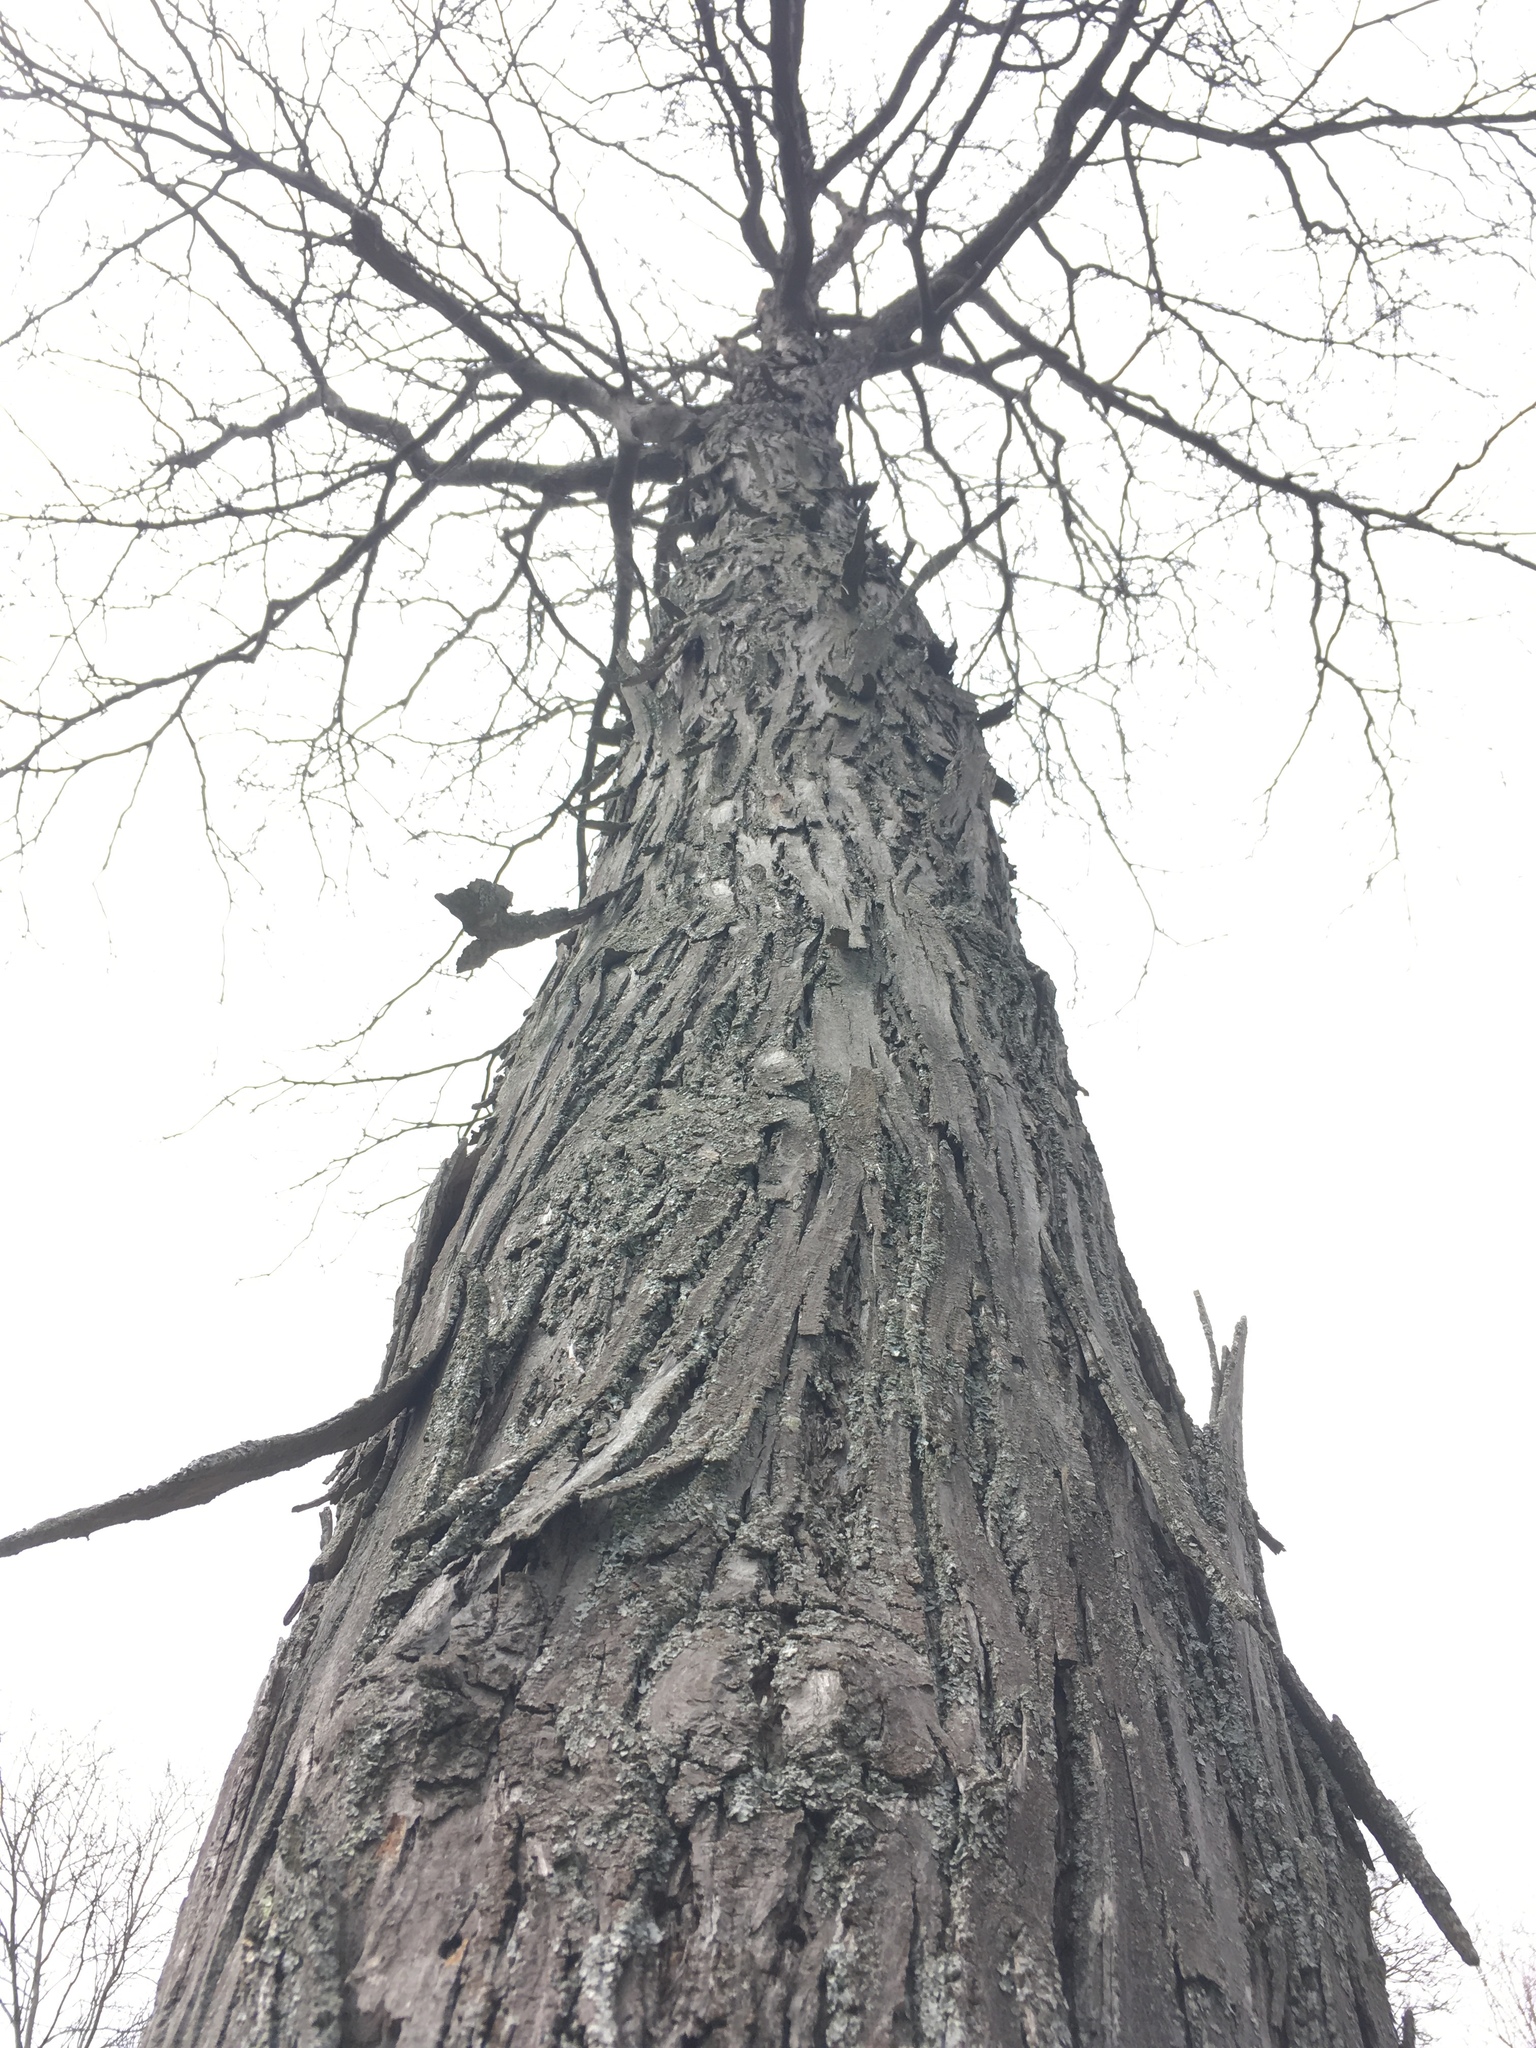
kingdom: Plantae
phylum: Tracheophyta
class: Magnoliopsida
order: Fagales
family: Juglandaceae
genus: Carya
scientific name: Carya ovata
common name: Shagbark hickory
